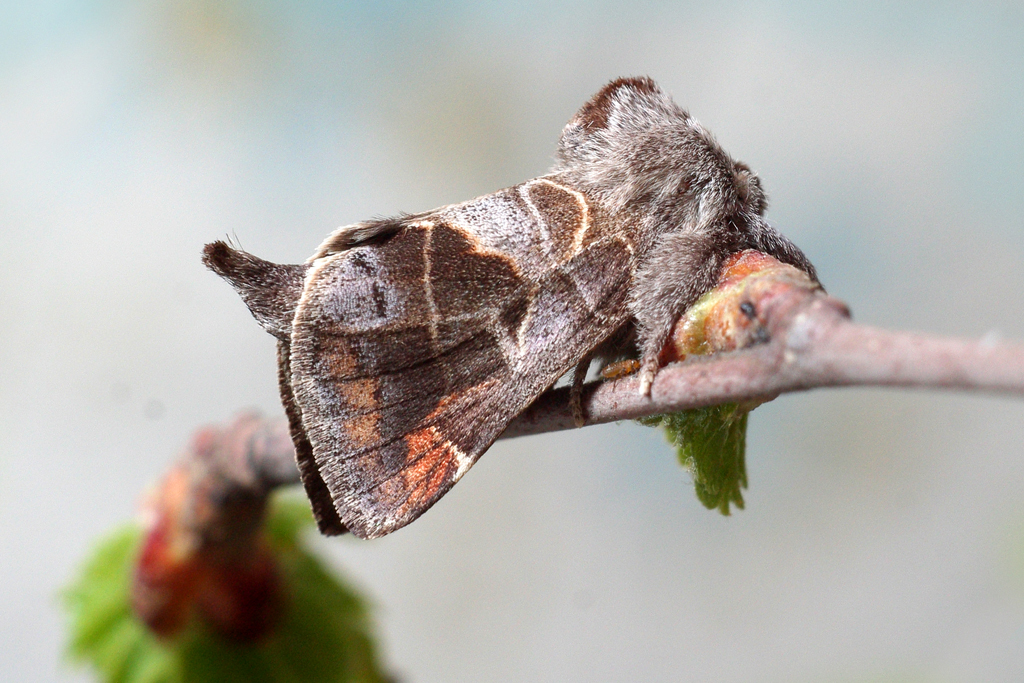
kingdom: Animalia
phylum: Arthropoda
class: Insecta
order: Lepidoptera
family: Notodontidae
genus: Clostera
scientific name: Clostera pigra
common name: Small chocolate-tip
